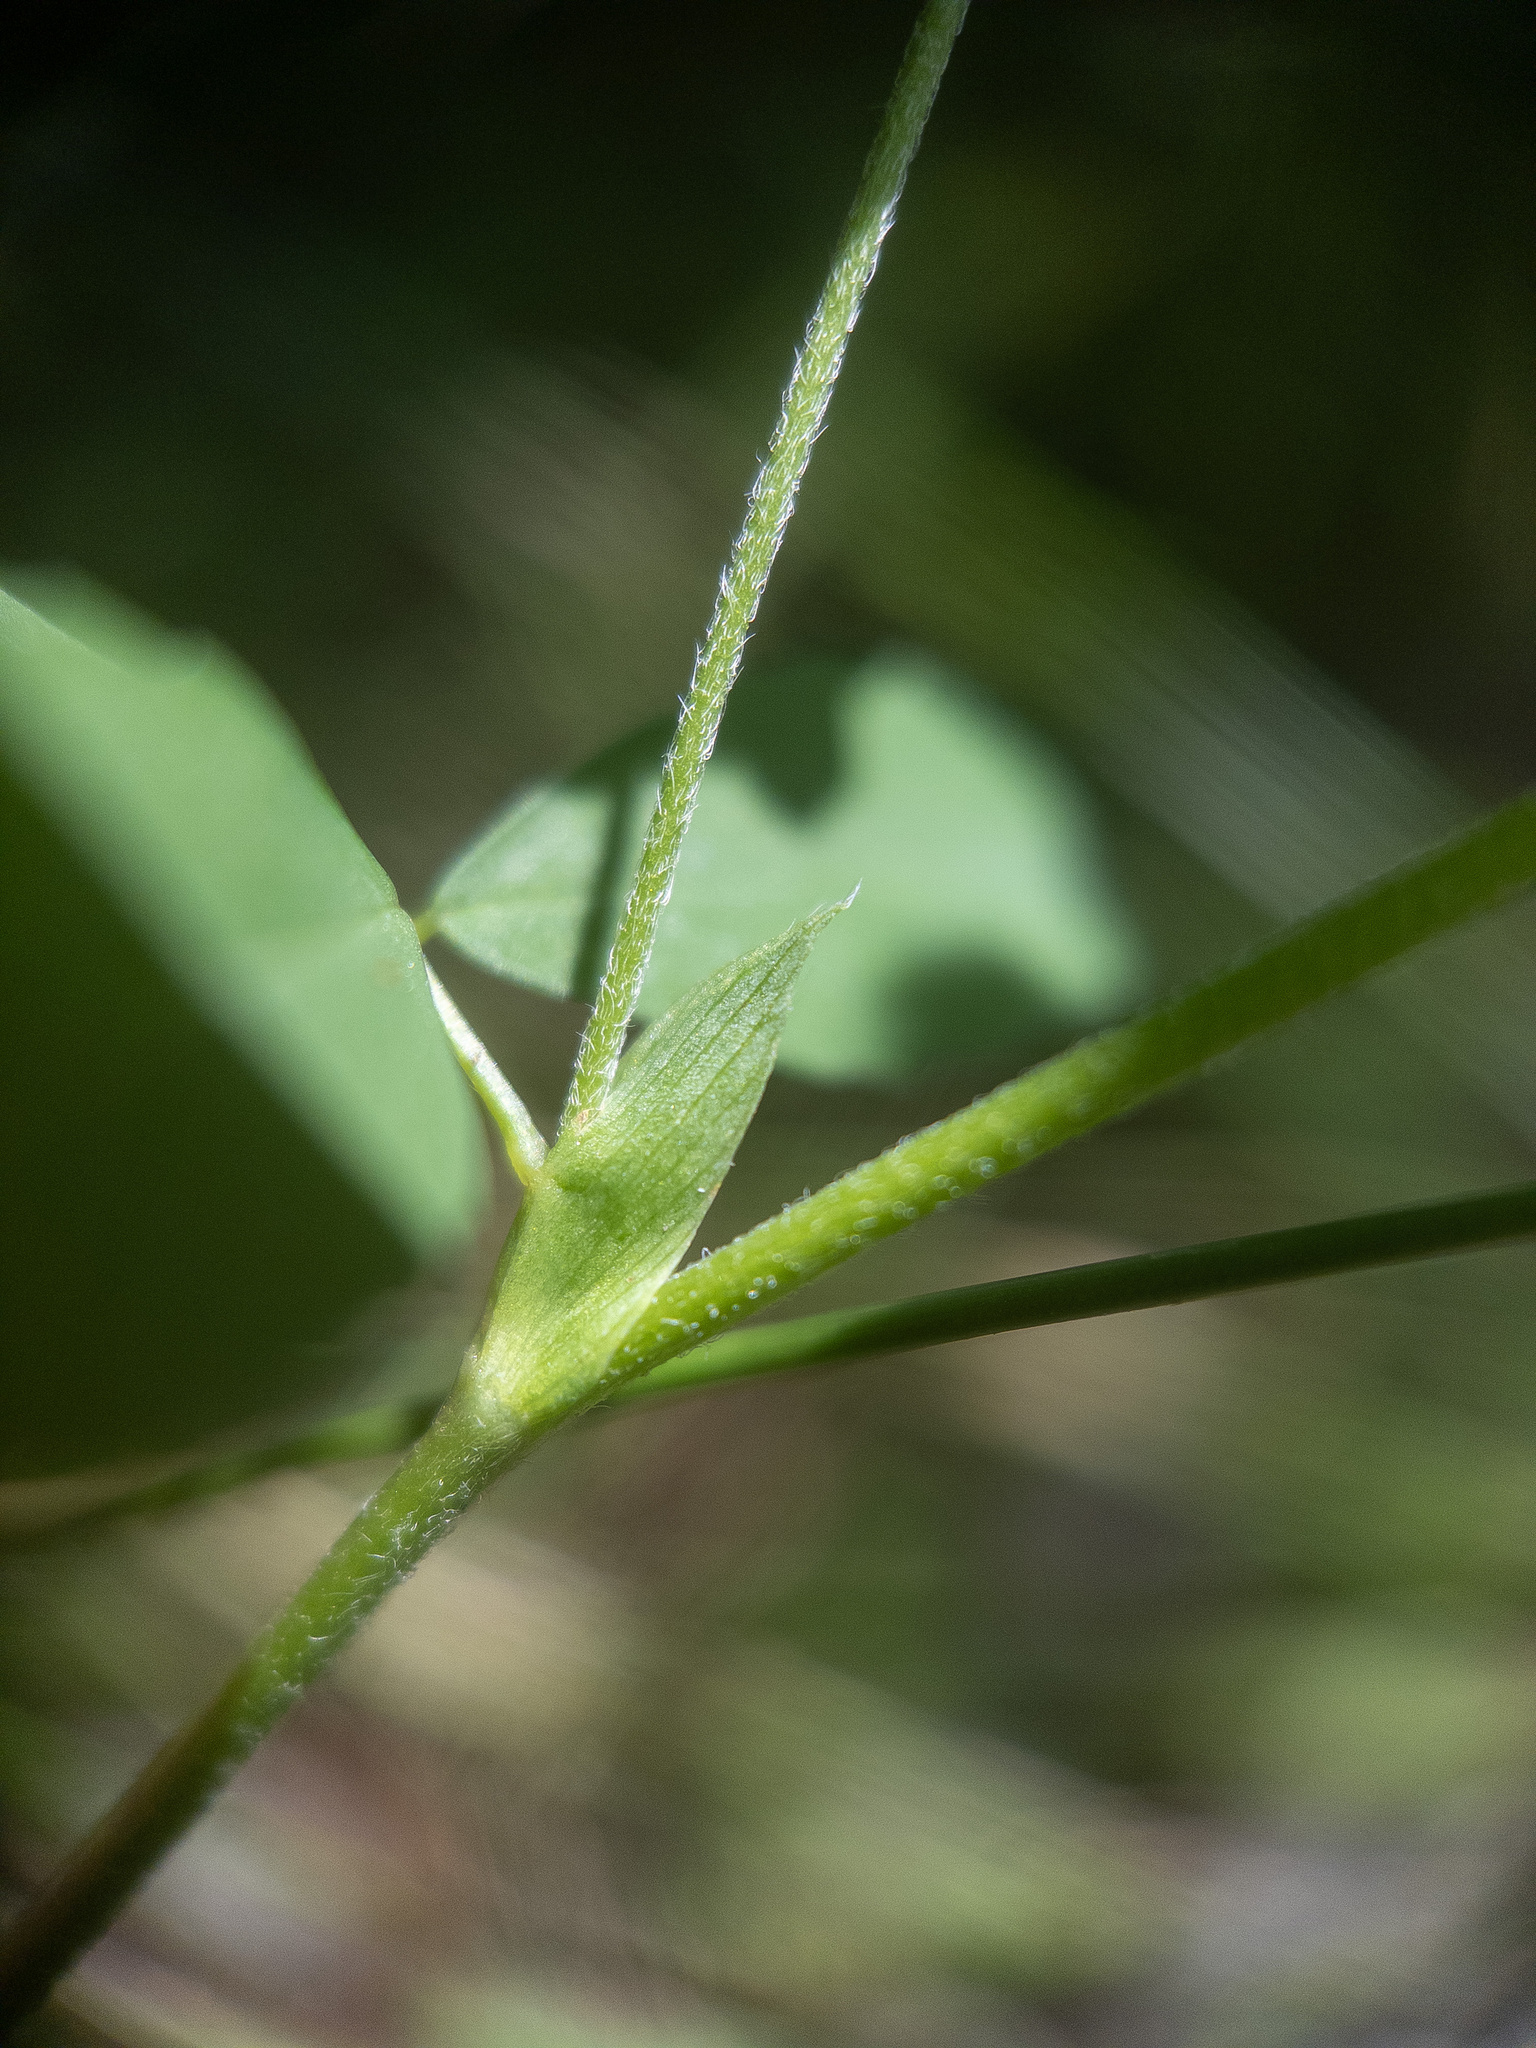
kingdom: Plantae
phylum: Tracheophyta
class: Magnoliopsida
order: Fabales
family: Fabaceae
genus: Trifolium
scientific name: Trifolium campestre
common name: Field clover
